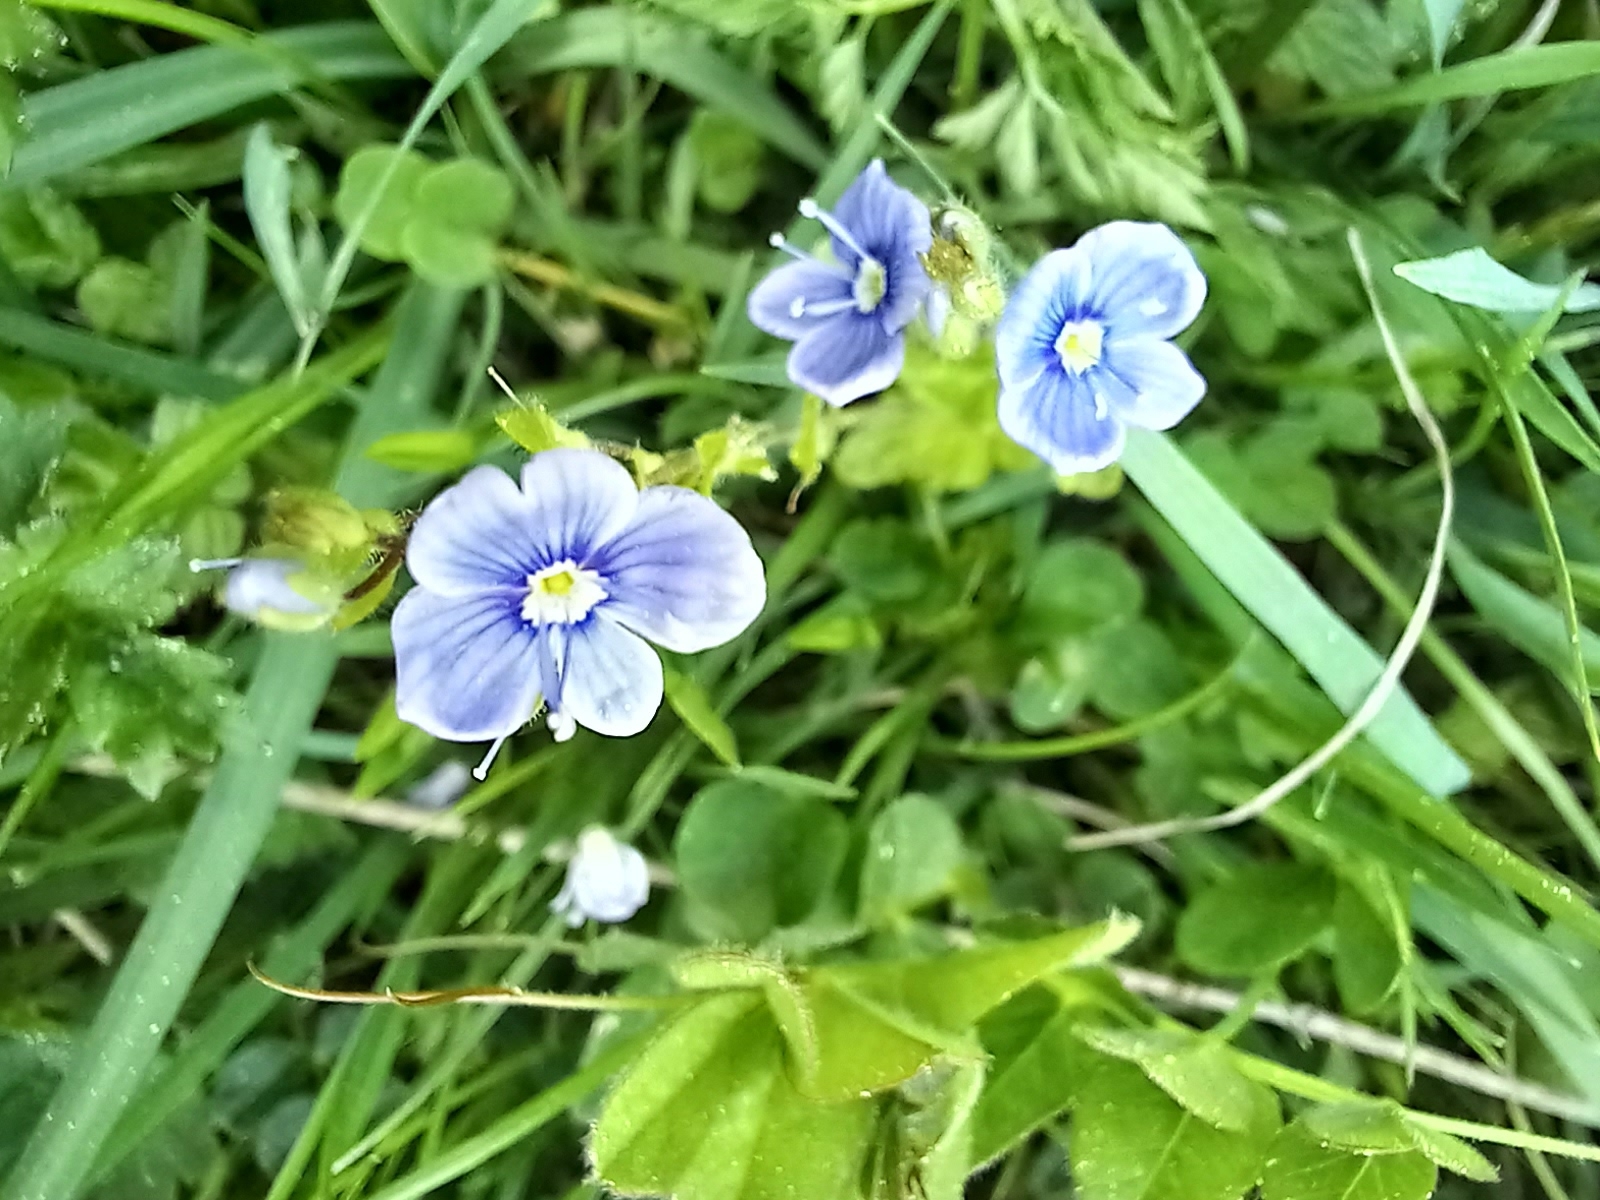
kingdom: Plantae
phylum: Tracheophyta
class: Magnoliopsida
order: Lamiales
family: Plantaginaceae
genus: Veronica
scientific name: Veronica chamaedrys
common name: Germander speedwell
